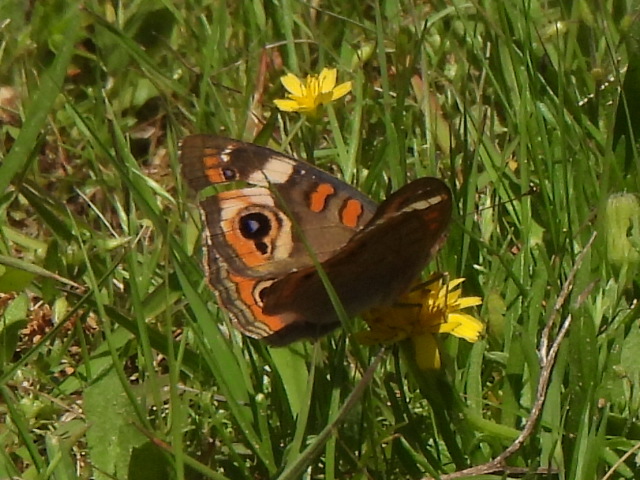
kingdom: Animalia
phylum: Arthropoda
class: Insecta
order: Lepidoptera
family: Nymphalidae
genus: Junonia
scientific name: Junonia coenia
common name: Common buckeye
